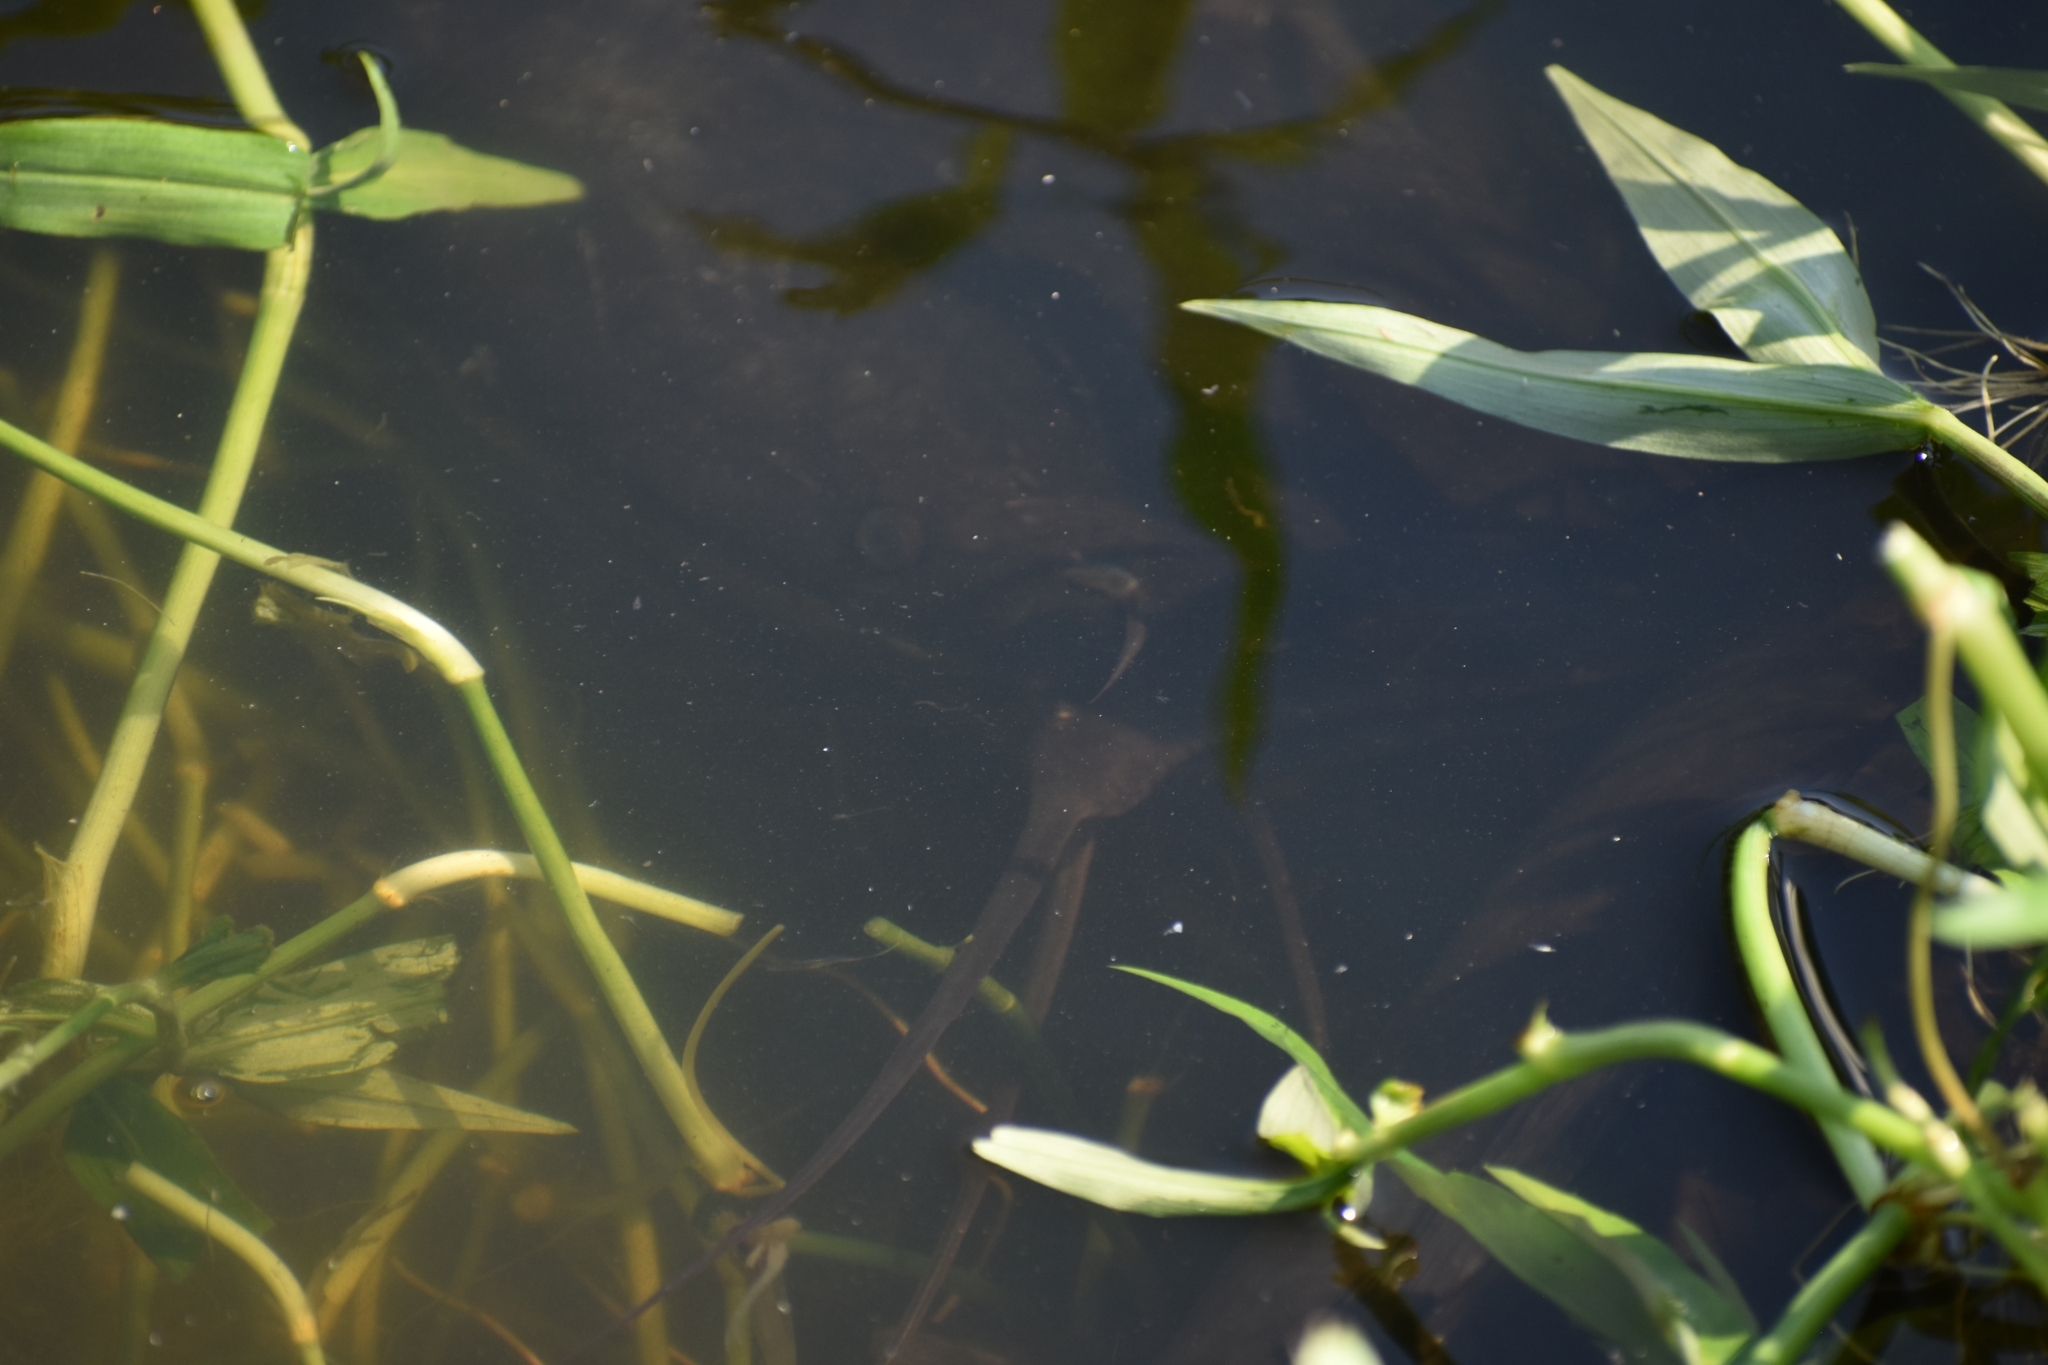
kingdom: Animalia
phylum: Chordata
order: Siluriformes
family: Clariidae
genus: Clarias
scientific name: Clarias gariepinus
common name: African catfish
